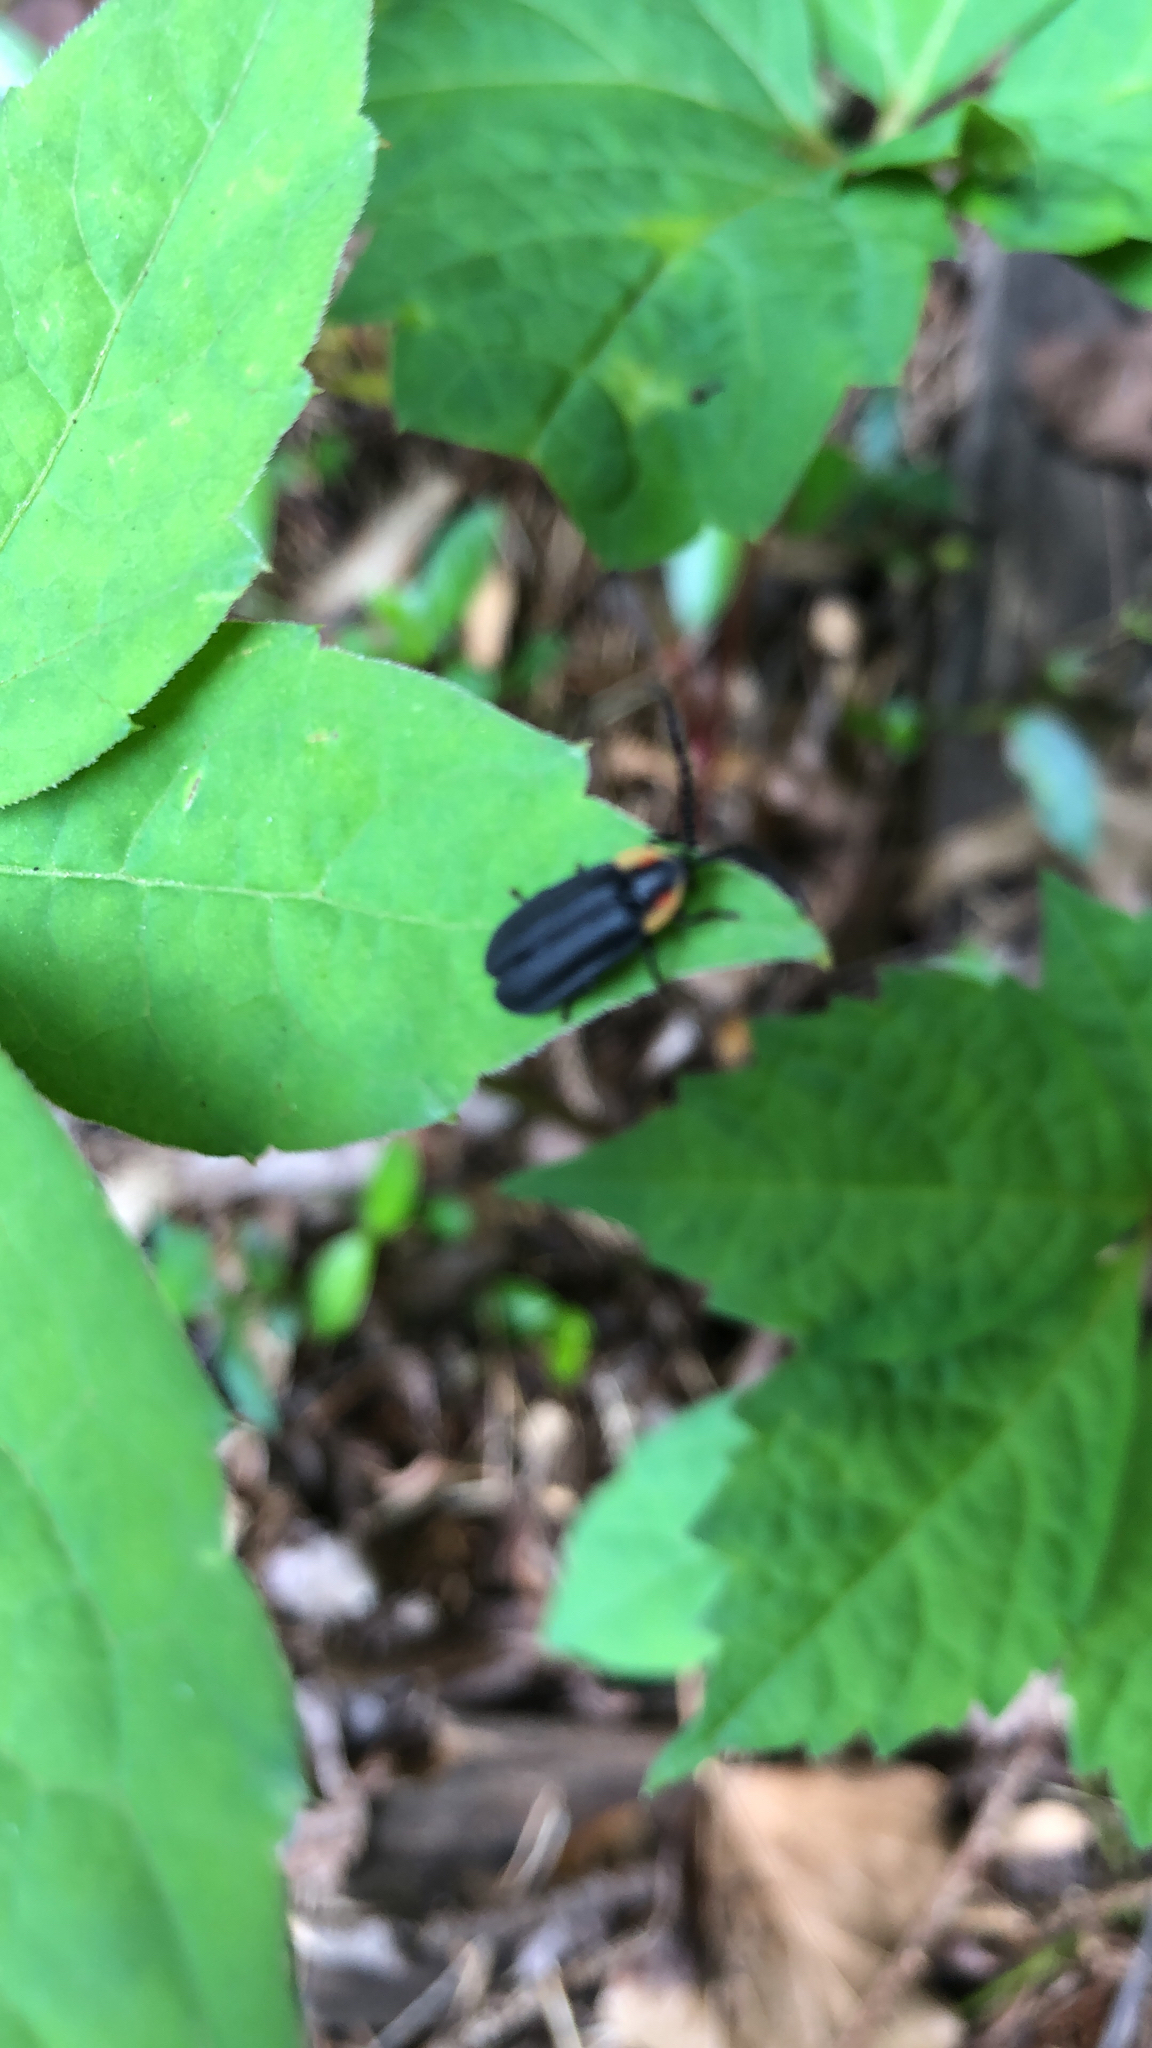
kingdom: Animalia
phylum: Arthropoda
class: Insecta
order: Coleoptera
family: Lampyridae
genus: Lucidota
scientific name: Lucidota atra
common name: Black firefly
